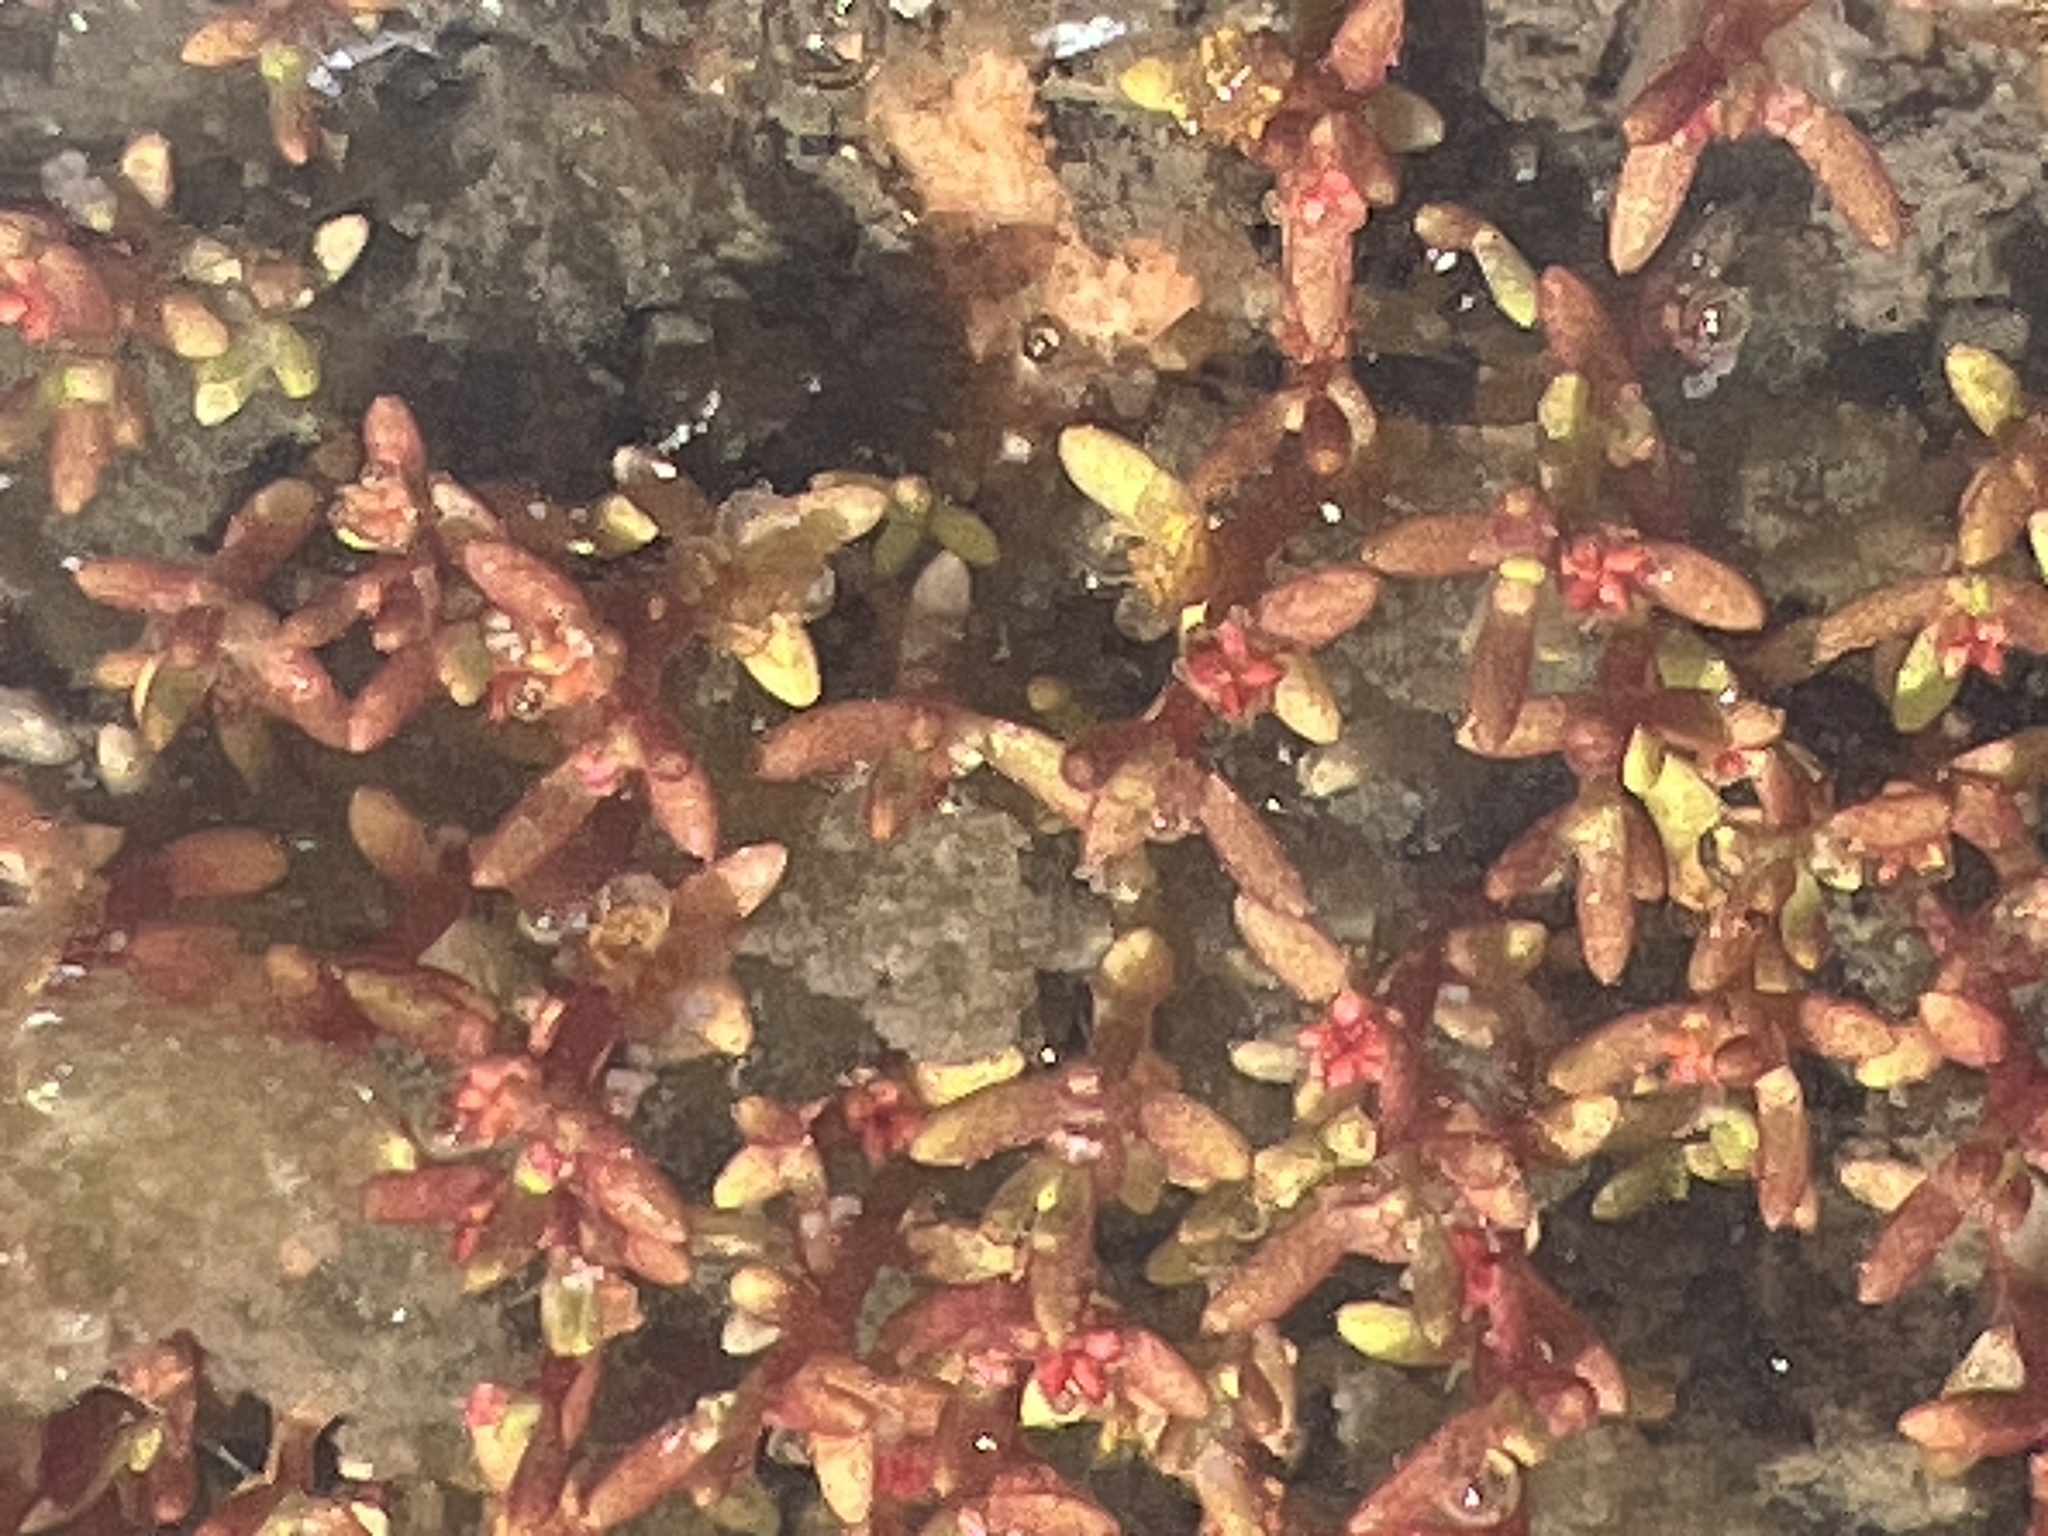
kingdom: Plantae
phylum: Tracheophyta
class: Magnoliopsida
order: Saxifragales
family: Crassulaceae
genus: Crassula
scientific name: Crassula aquatica
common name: Pigmyweed
